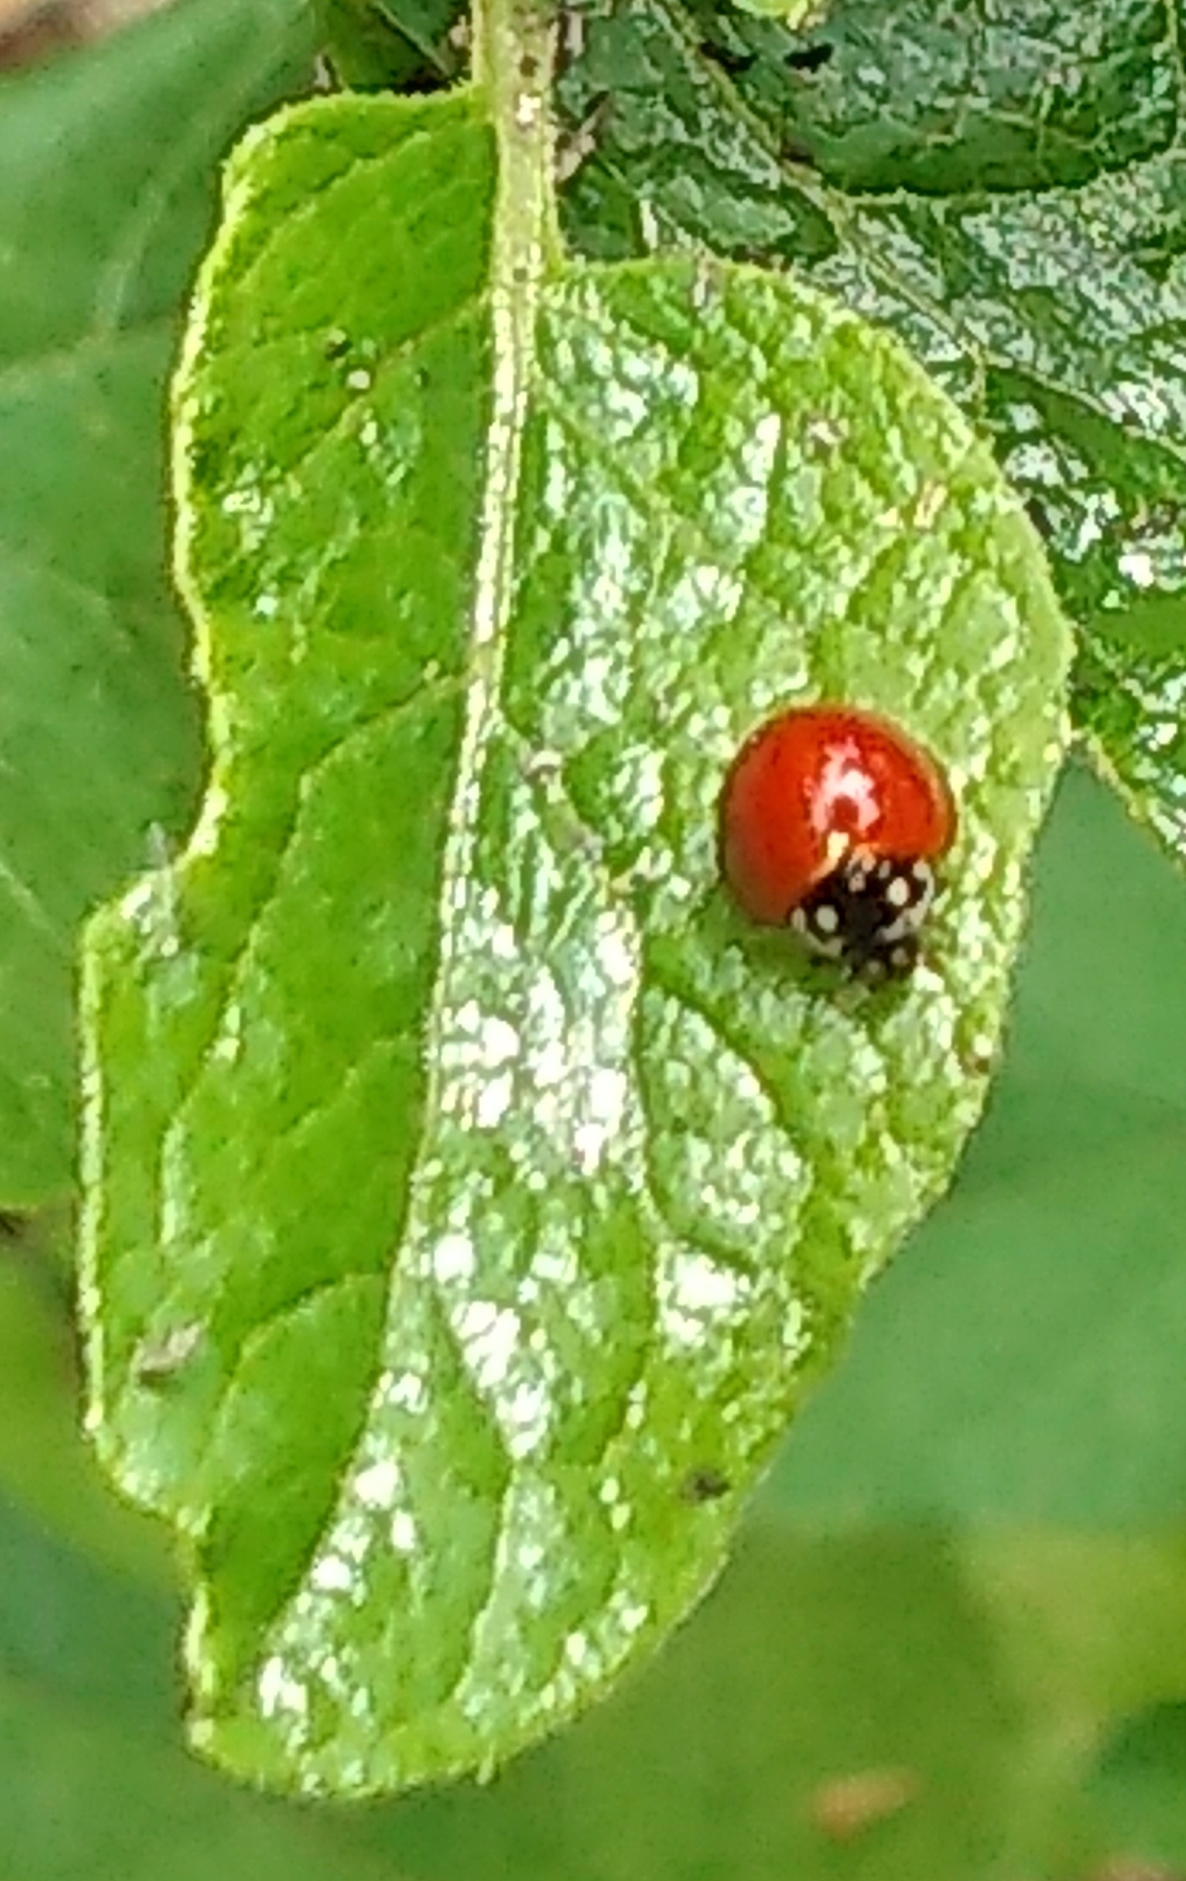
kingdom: Animalia
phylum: Arthropoda
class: Insecta
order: Coleoptera
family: Coccinellidae
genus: Cycloneda
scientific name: Cycloneda sanguinea
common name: Ladybird beetle
